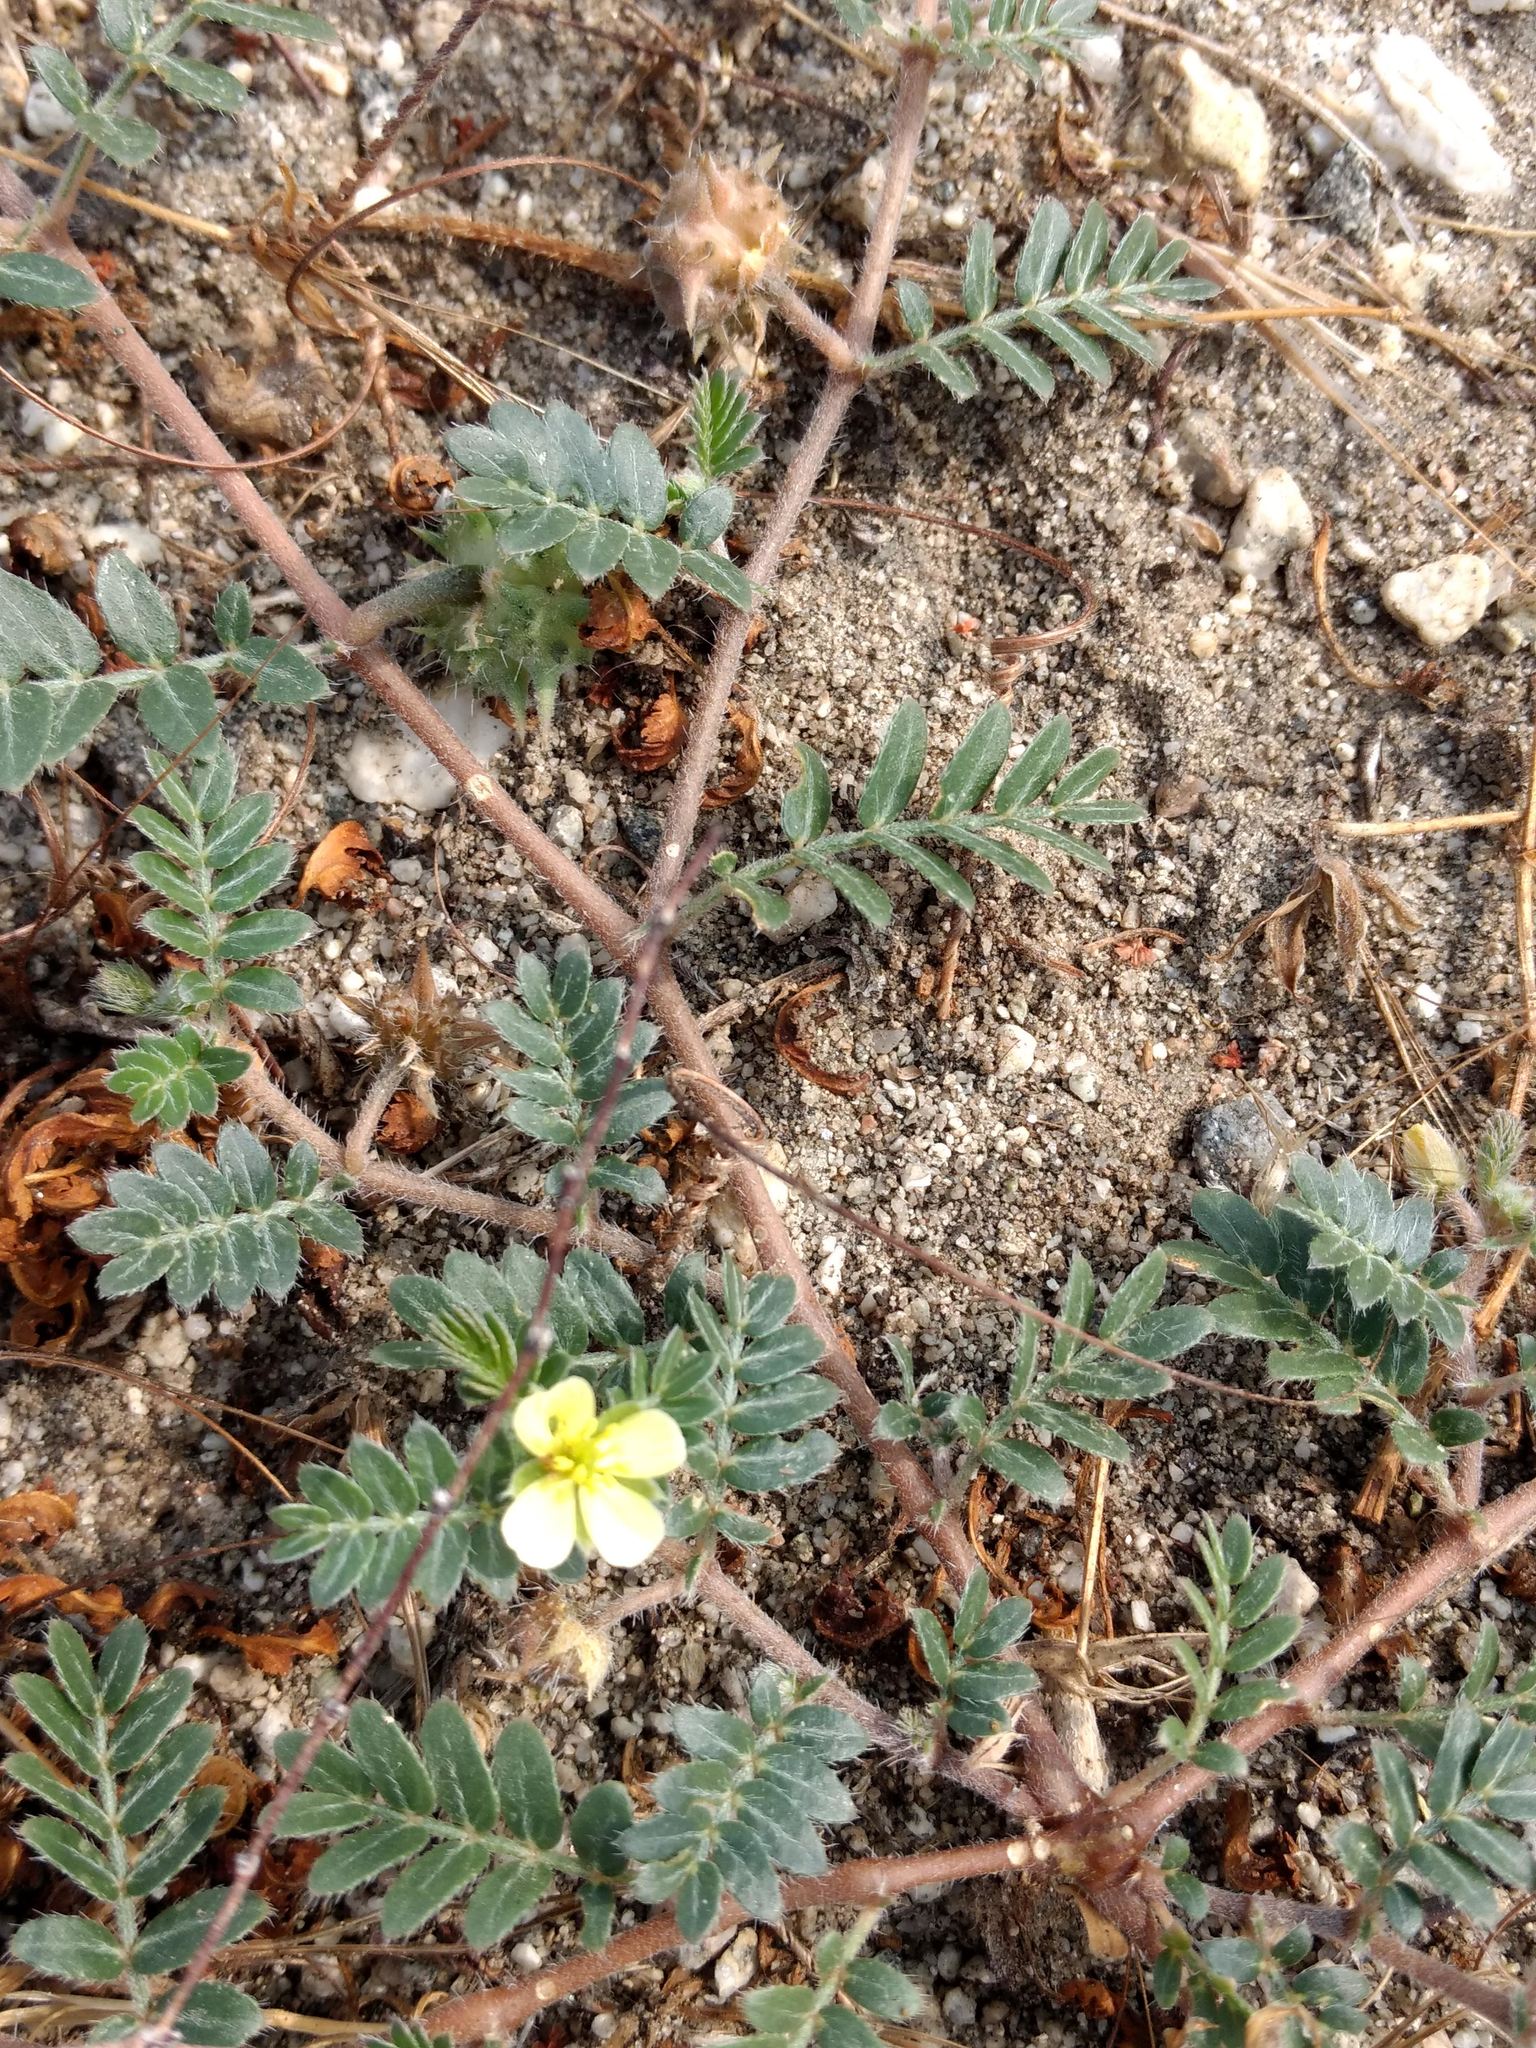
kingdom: Plantae
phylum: Tracheophyta
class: Magnoliopsida
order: Zygophyllales
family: Zygophyllaceae
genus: Tribulus
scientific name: Tribulus terrestris
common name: Puncturevine
